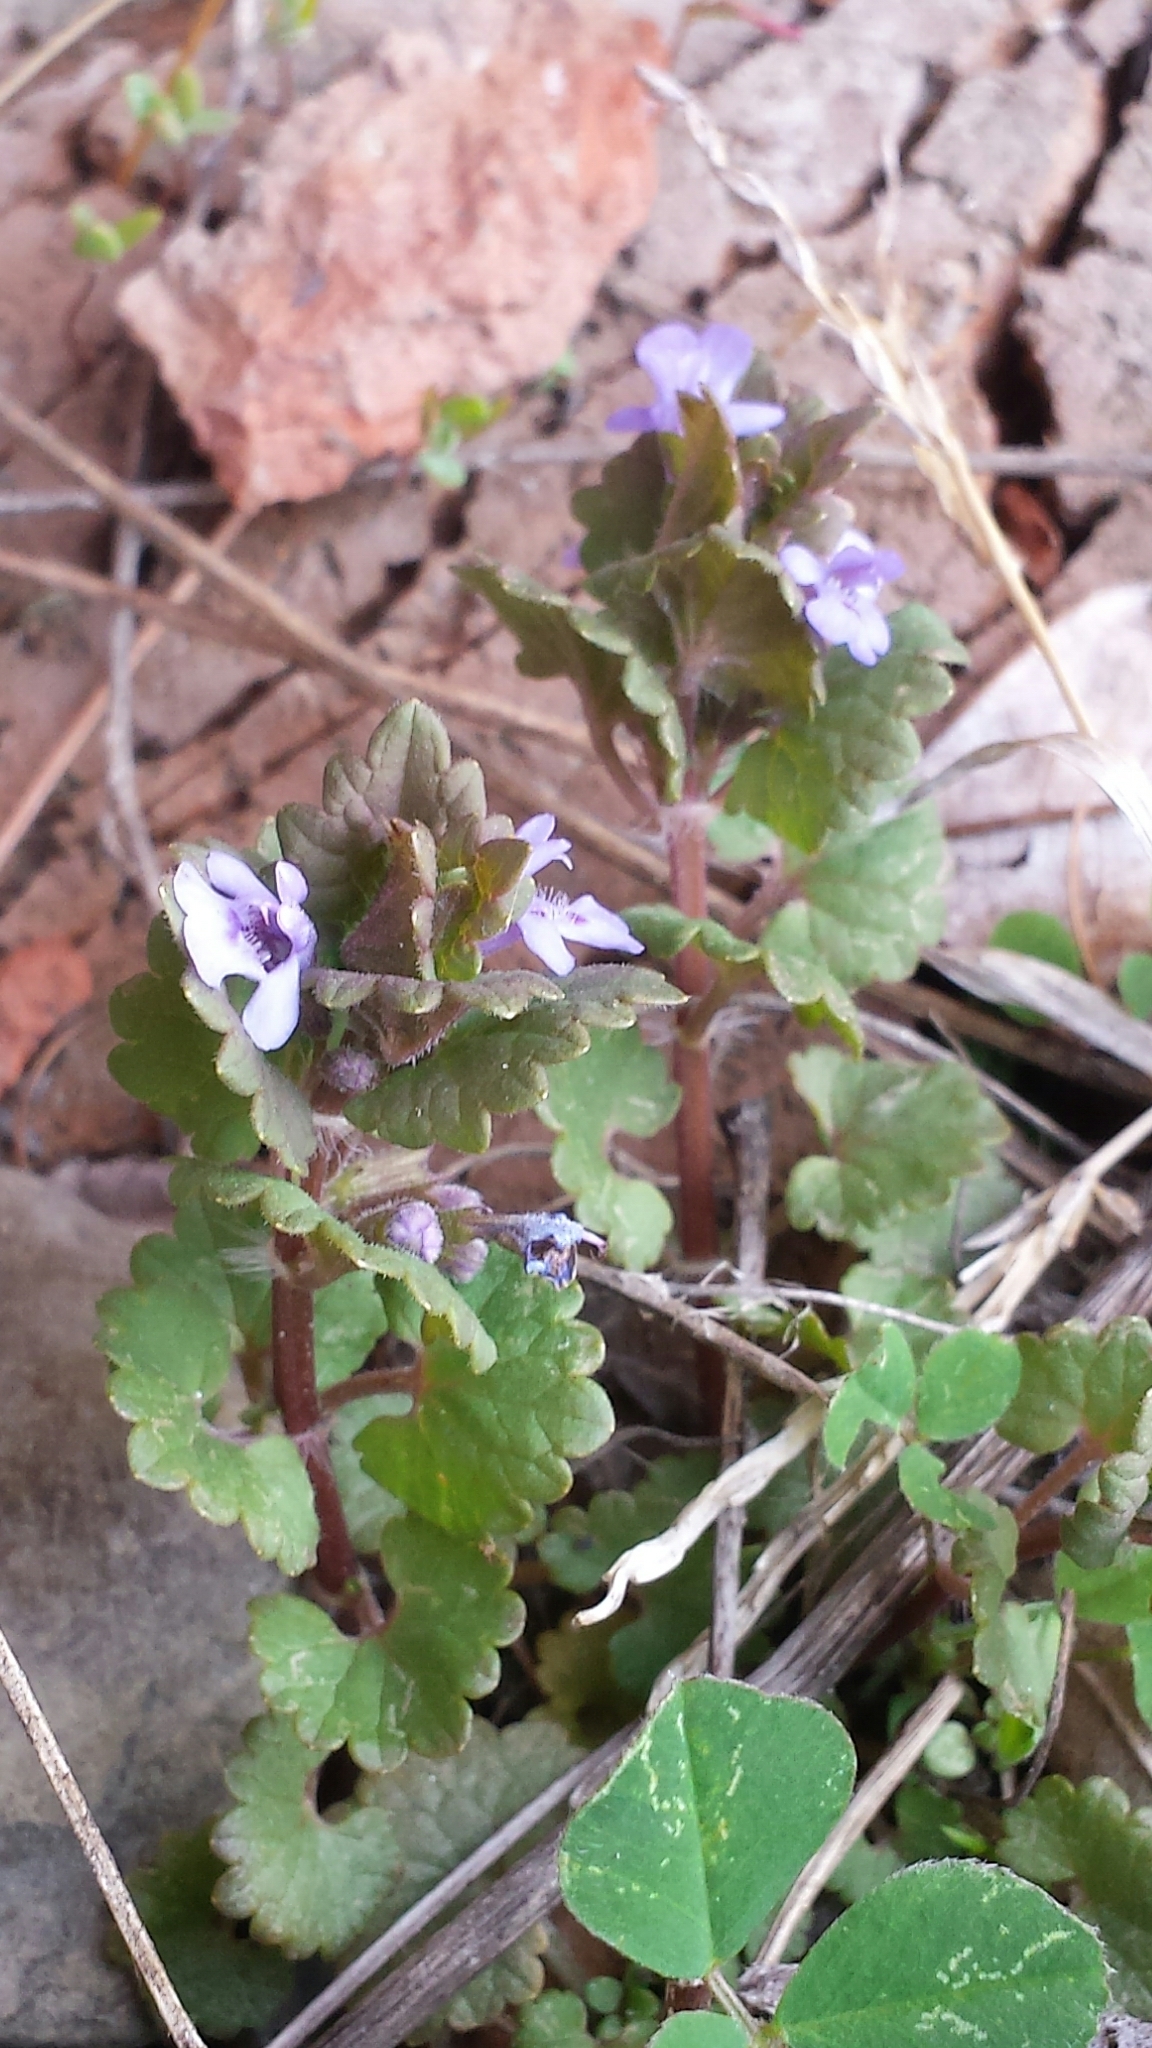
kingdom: Plantae
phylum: Tracheophyta
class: Magnoliopsida
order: Lamiales
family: Lamiaceae
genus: Glechoma
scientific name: Glechoma hederacea
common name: Ground ivy
